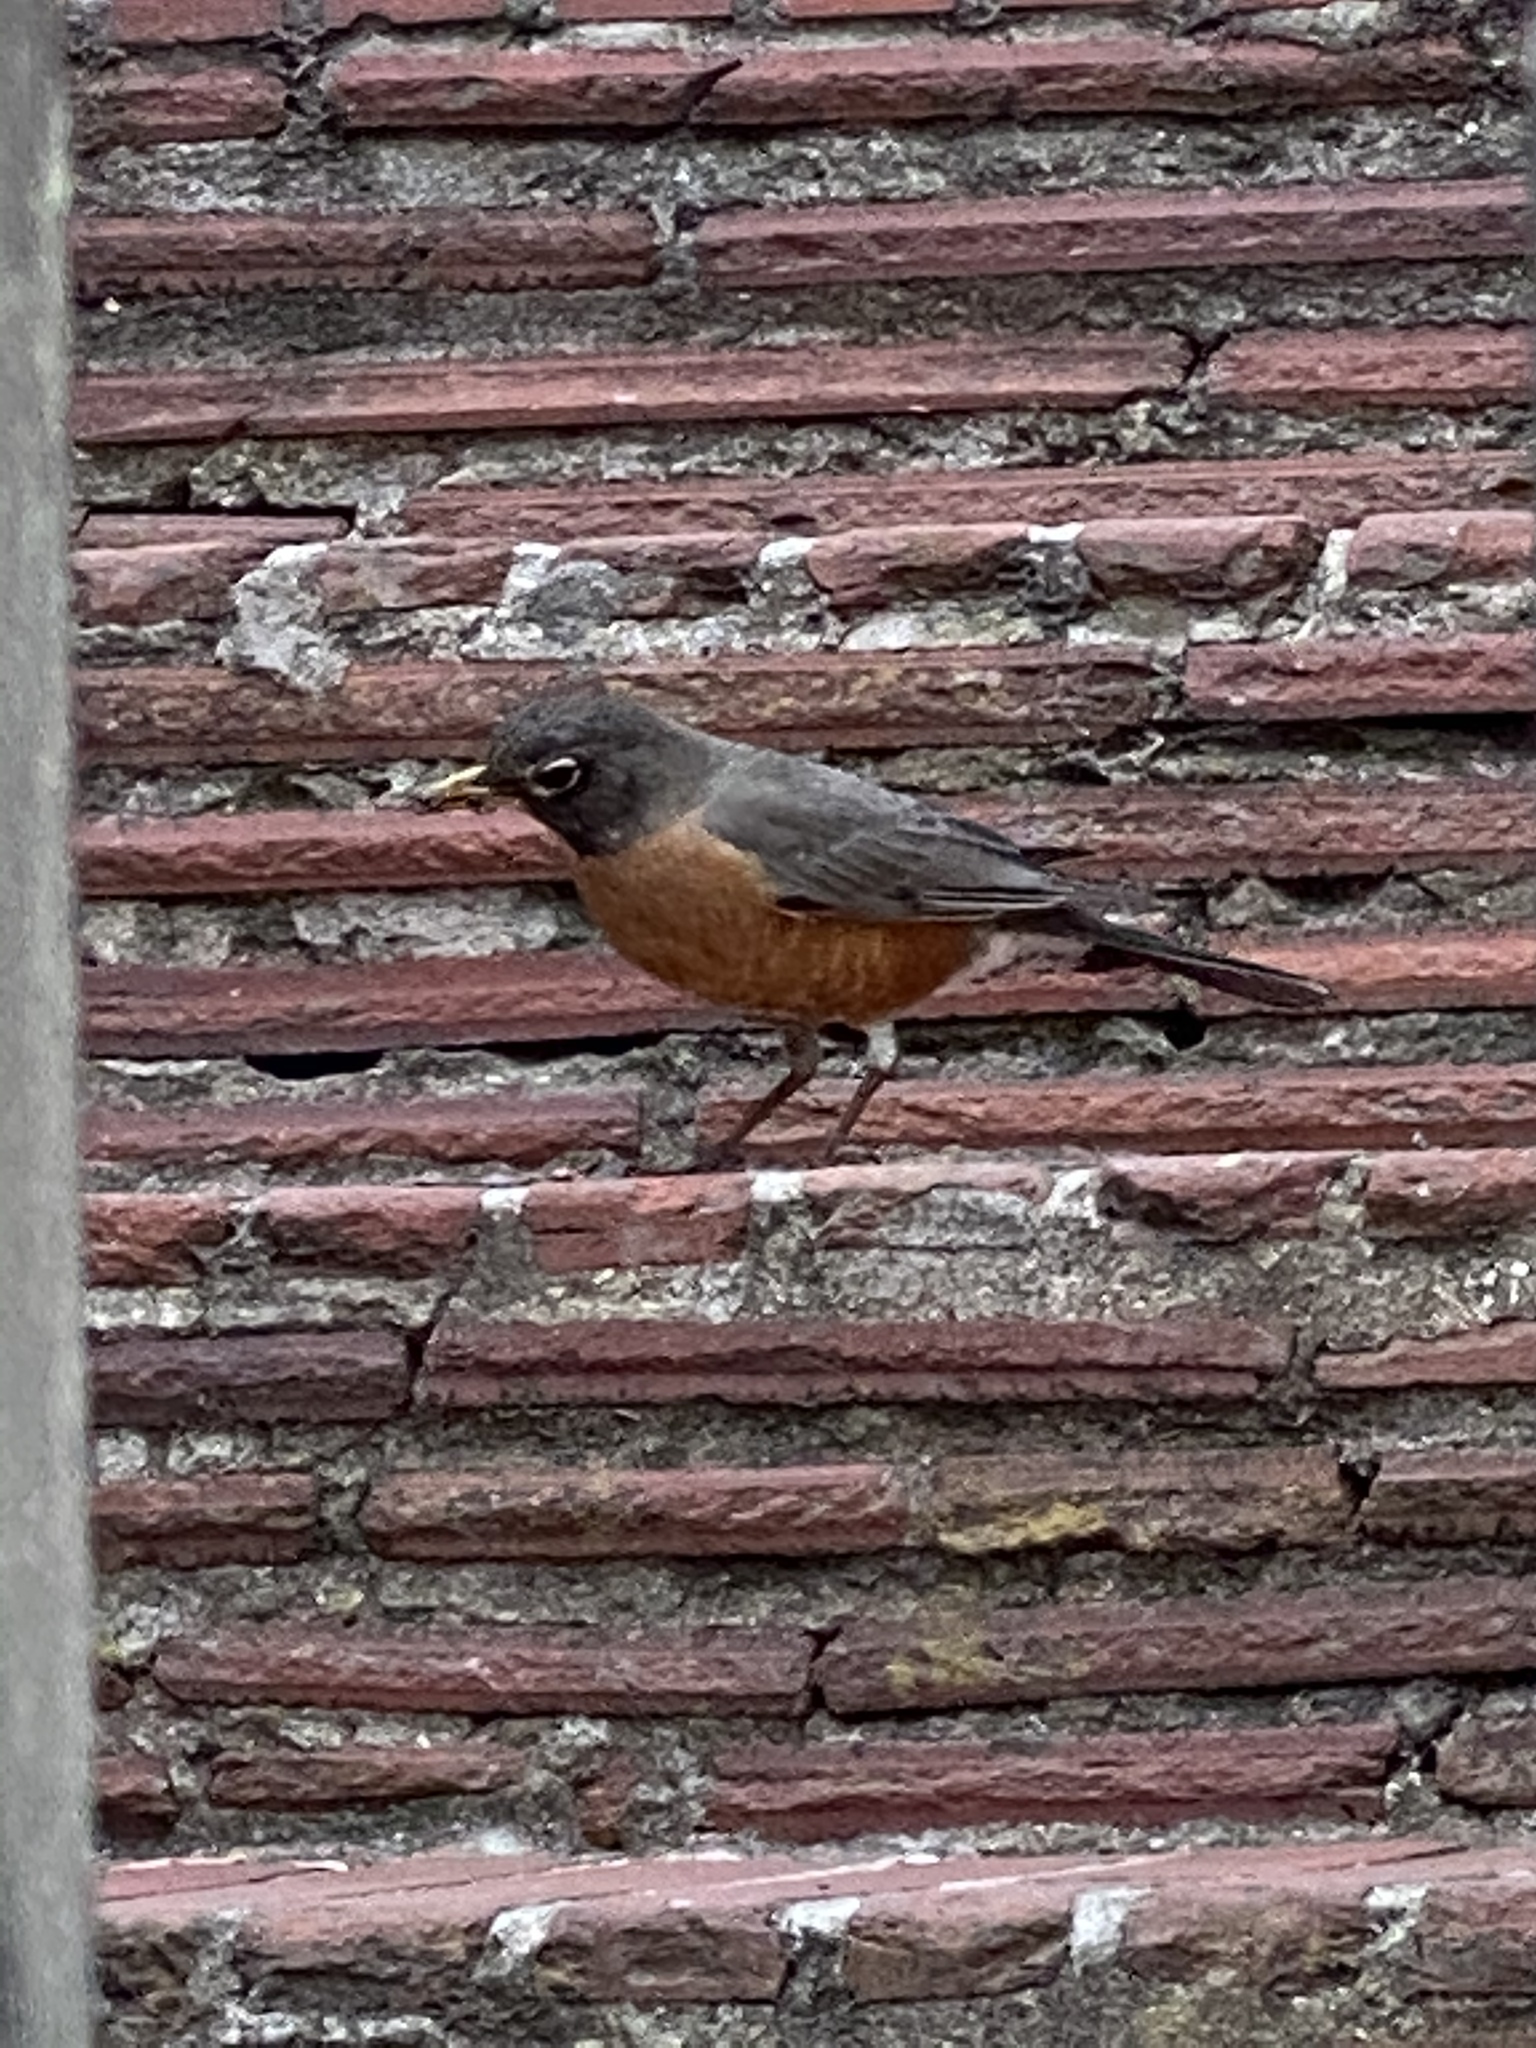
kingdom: Animalia
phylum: Chordata
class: Aves
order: Passeriformes
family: Turdidae
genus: Turdus
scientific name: Turdus migratorius
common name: American robin
